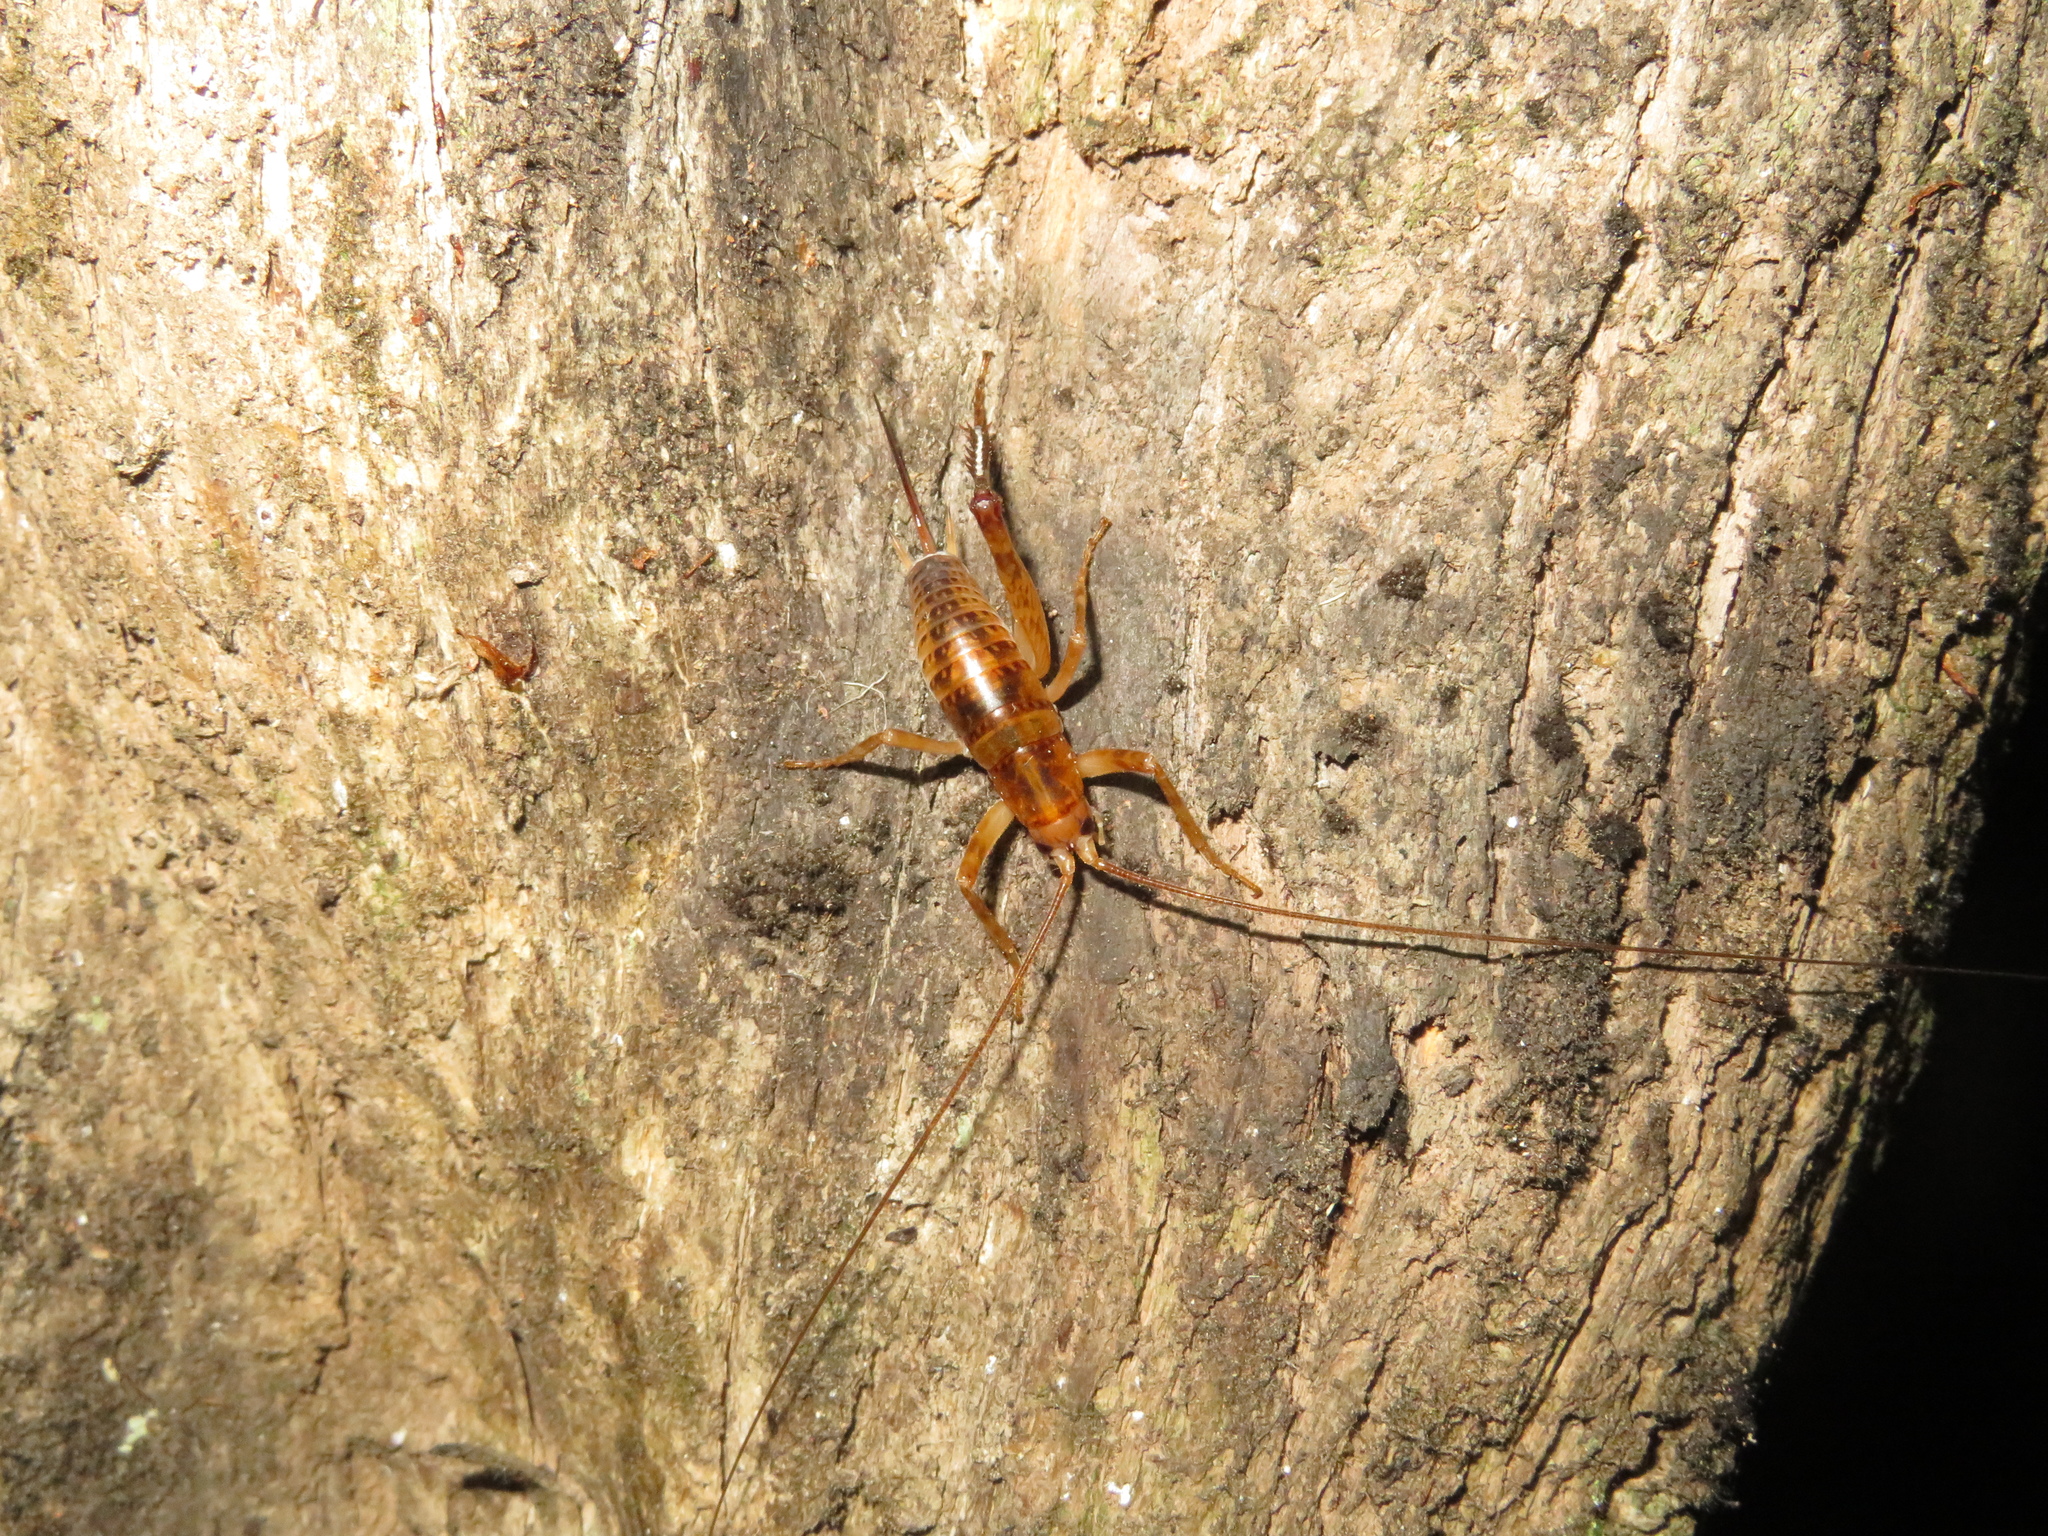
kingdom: Animalia
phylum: Arthropoda
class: Insecta
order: Orthoptera
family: Rhaphidophoridae
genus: Talitropsis
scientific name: Talitropsis sedilloti
